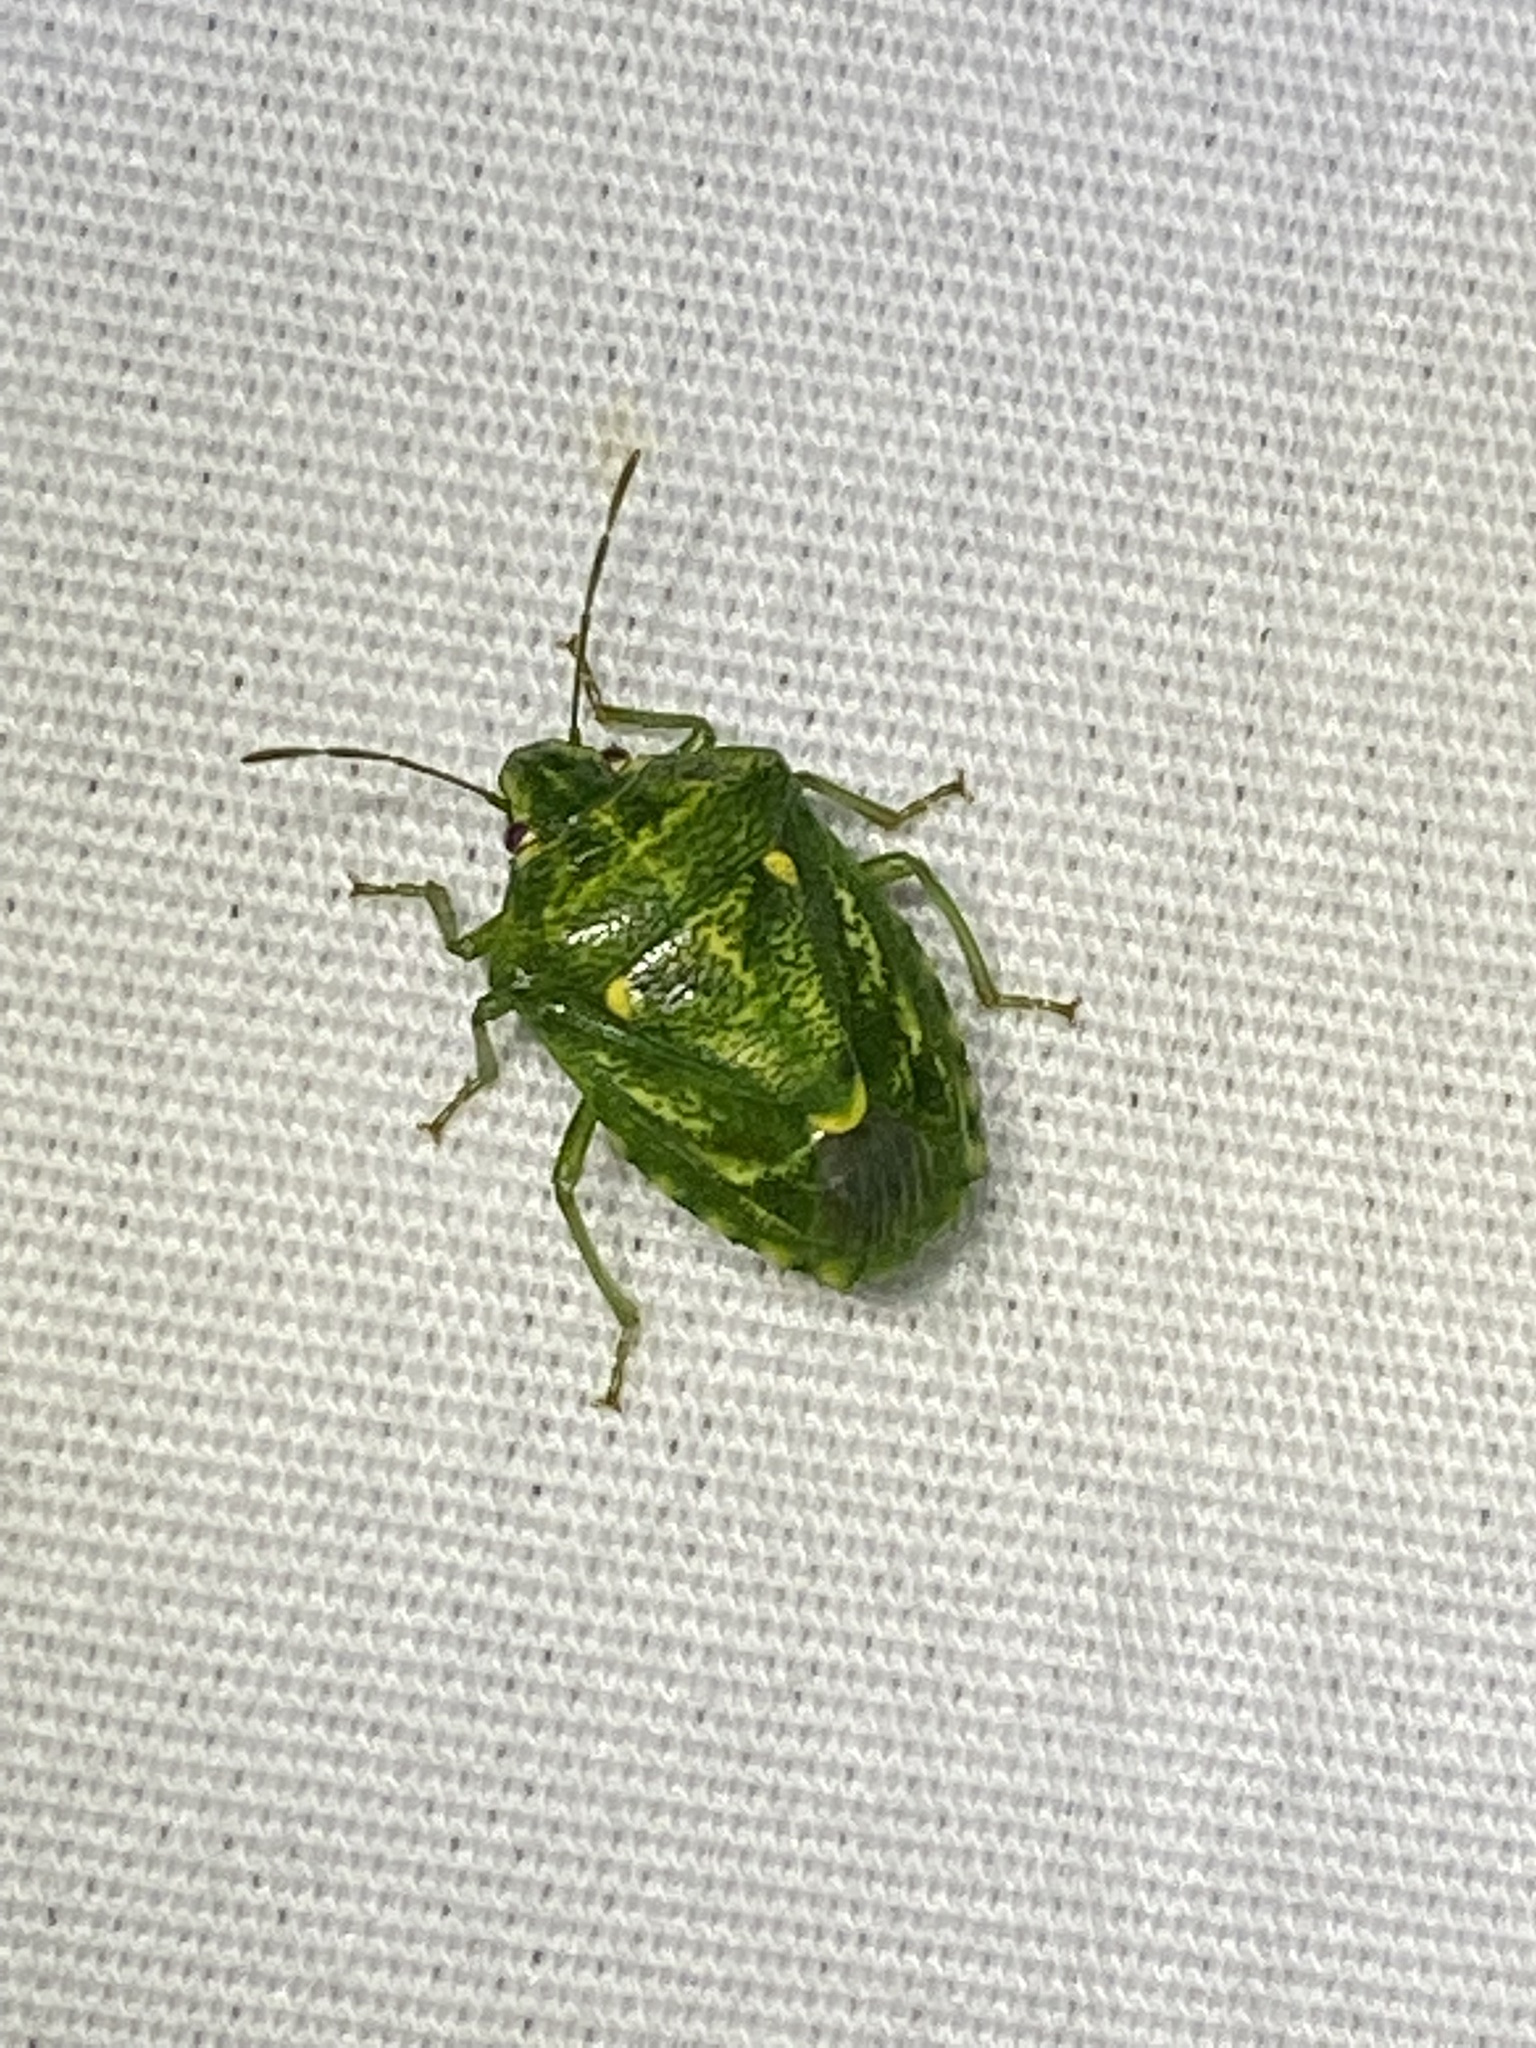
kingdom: Animalia
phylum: Arthropoda
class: Insecta
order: Hemiptera
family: Pentatomidae
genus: Banasa
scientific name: Banasa euchlora
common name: Cedar berry bug
